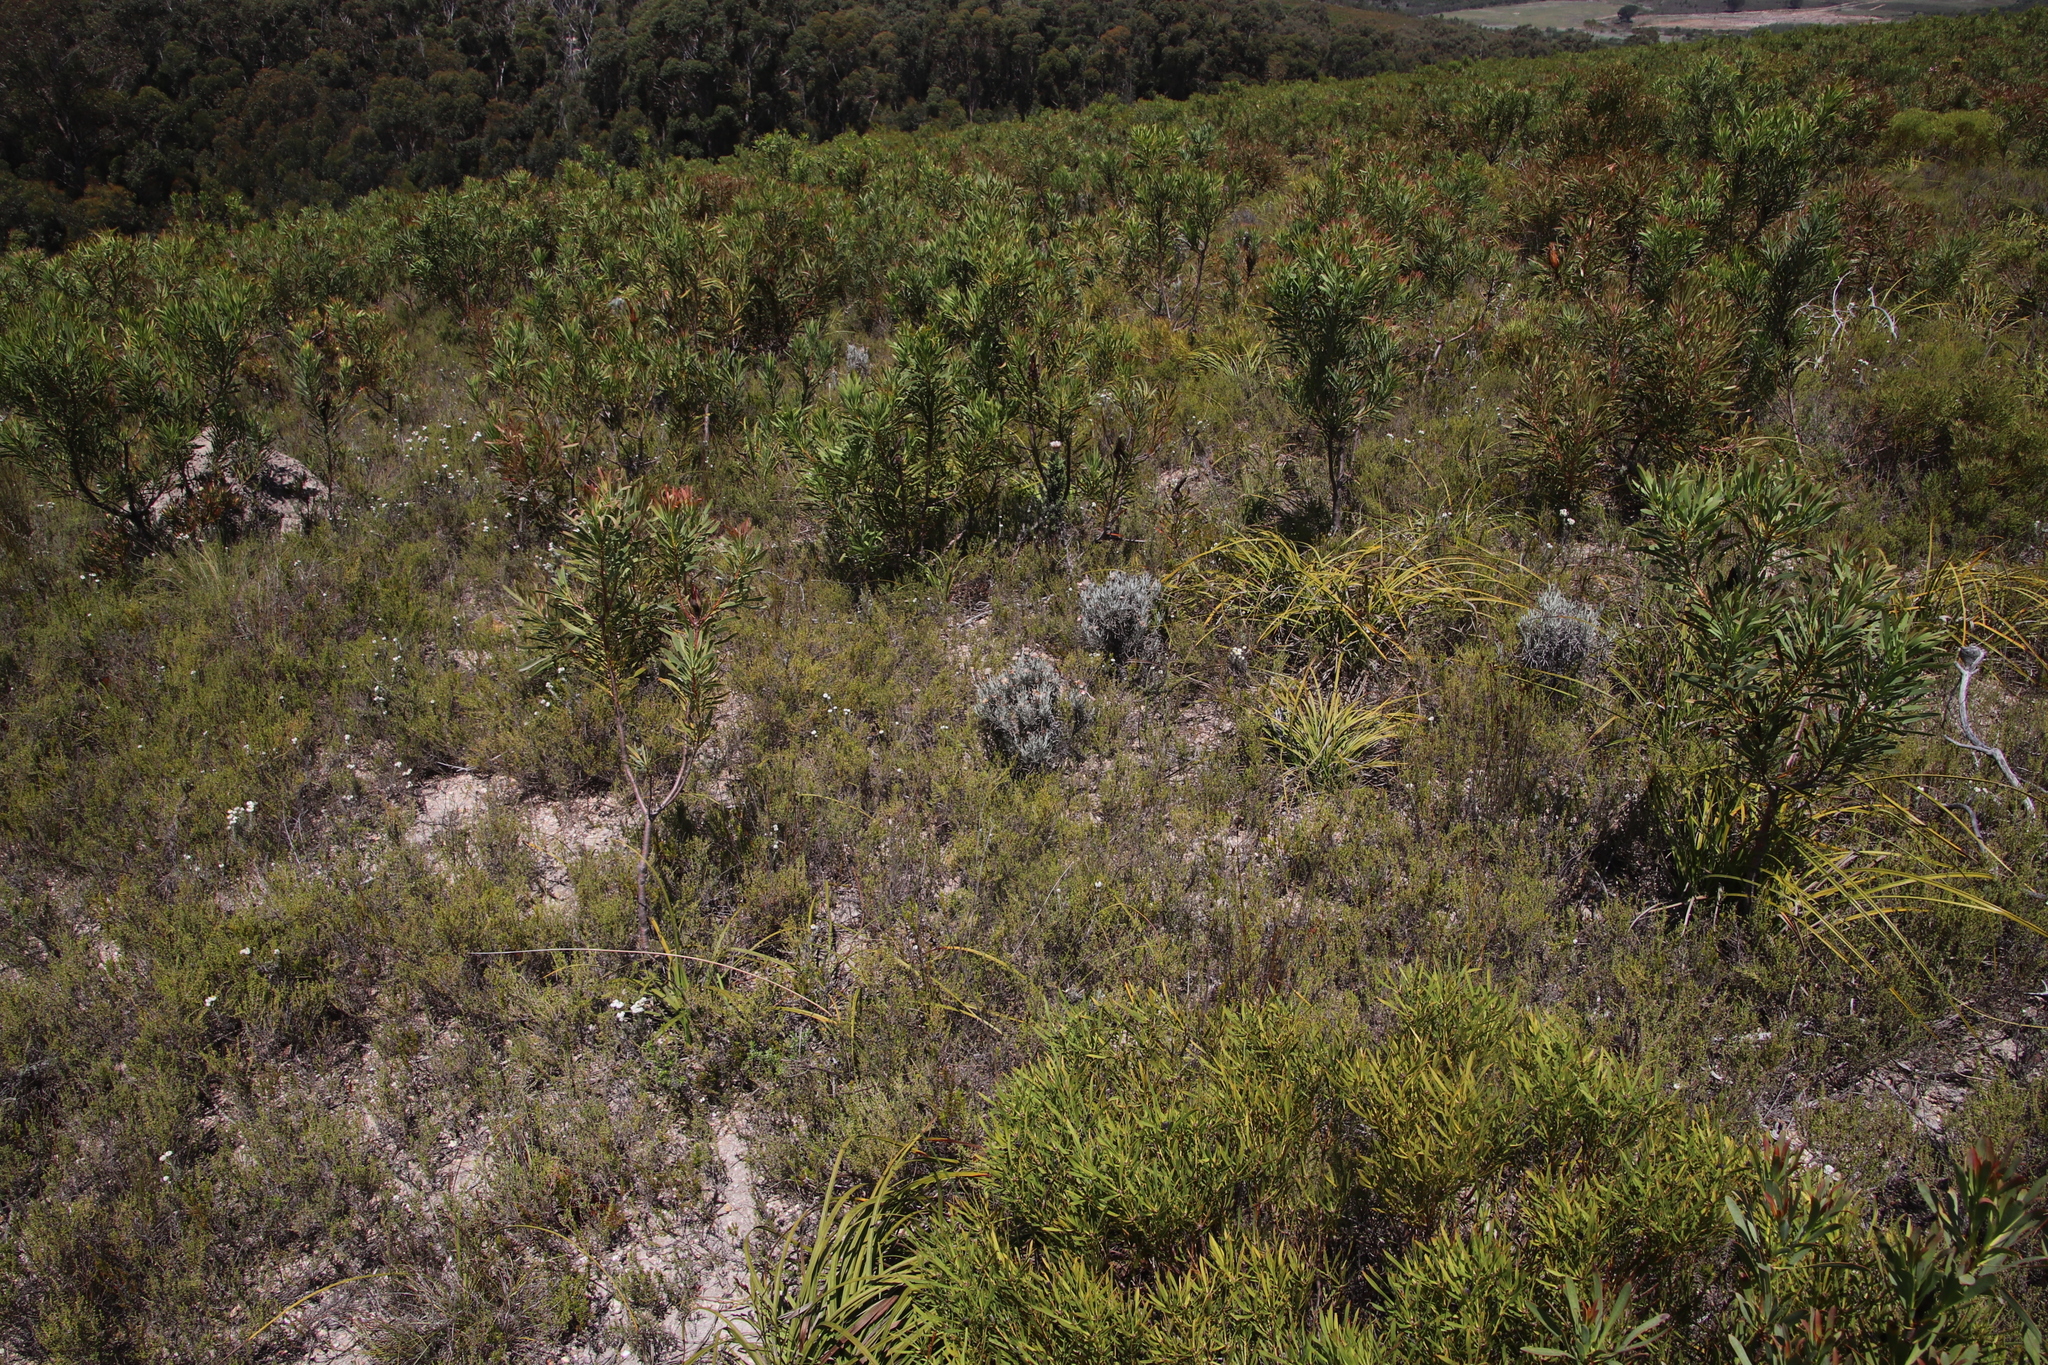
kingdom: Plantae
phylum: Tracheophyta
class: Magnoliopsida
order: Asterales
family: Asteraceae
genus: Syncarpha
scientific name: Syncarpha gnaphaloides
